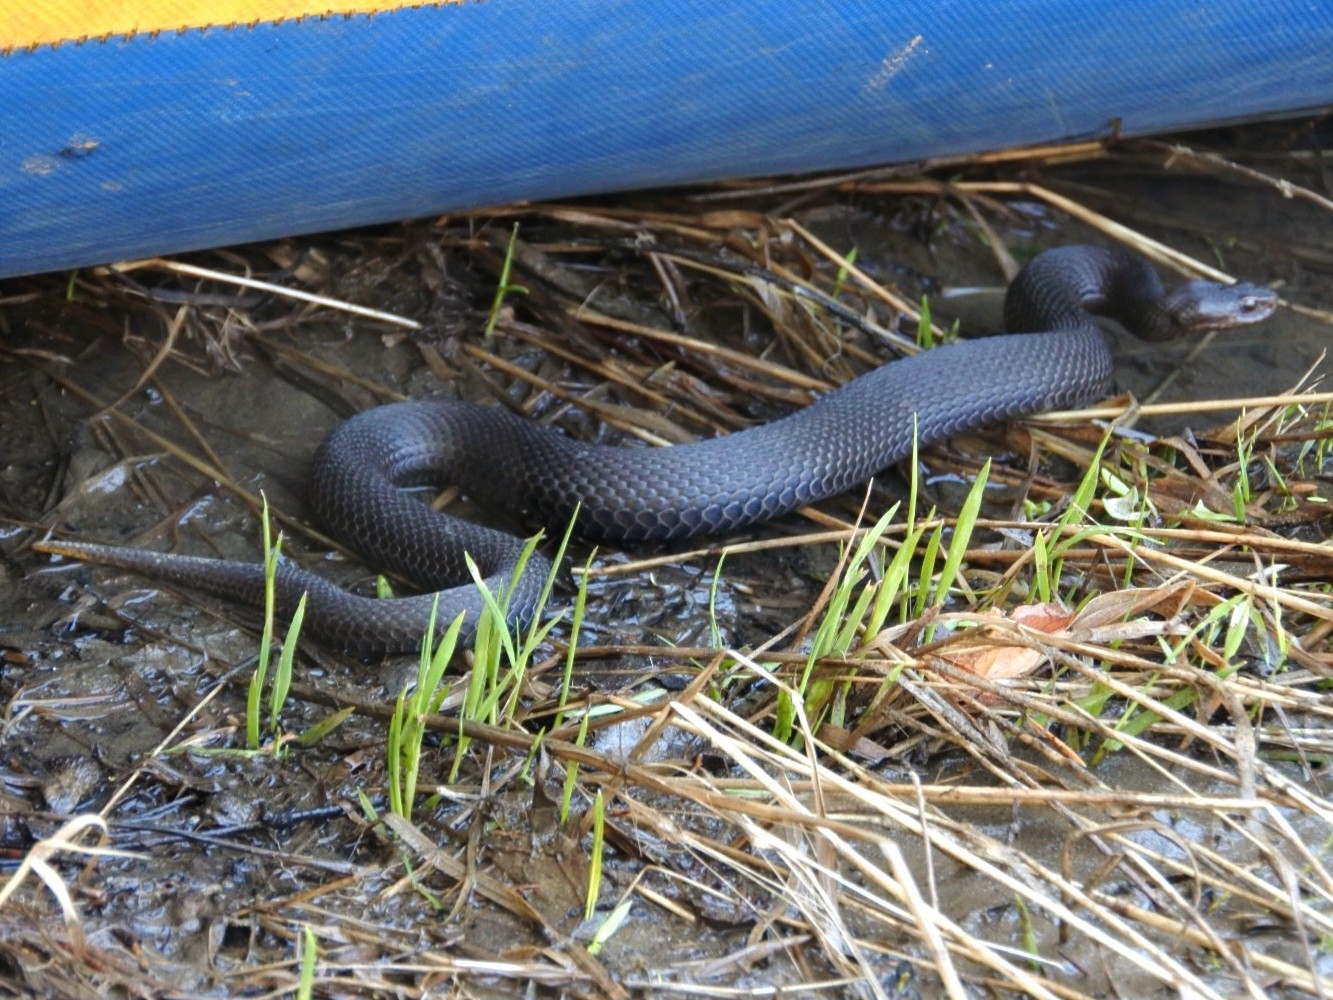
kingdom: Animalia
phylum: Chordata
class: Squamata
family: Viperidae
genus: Vipera
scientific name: Vipera berus
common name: Adder
